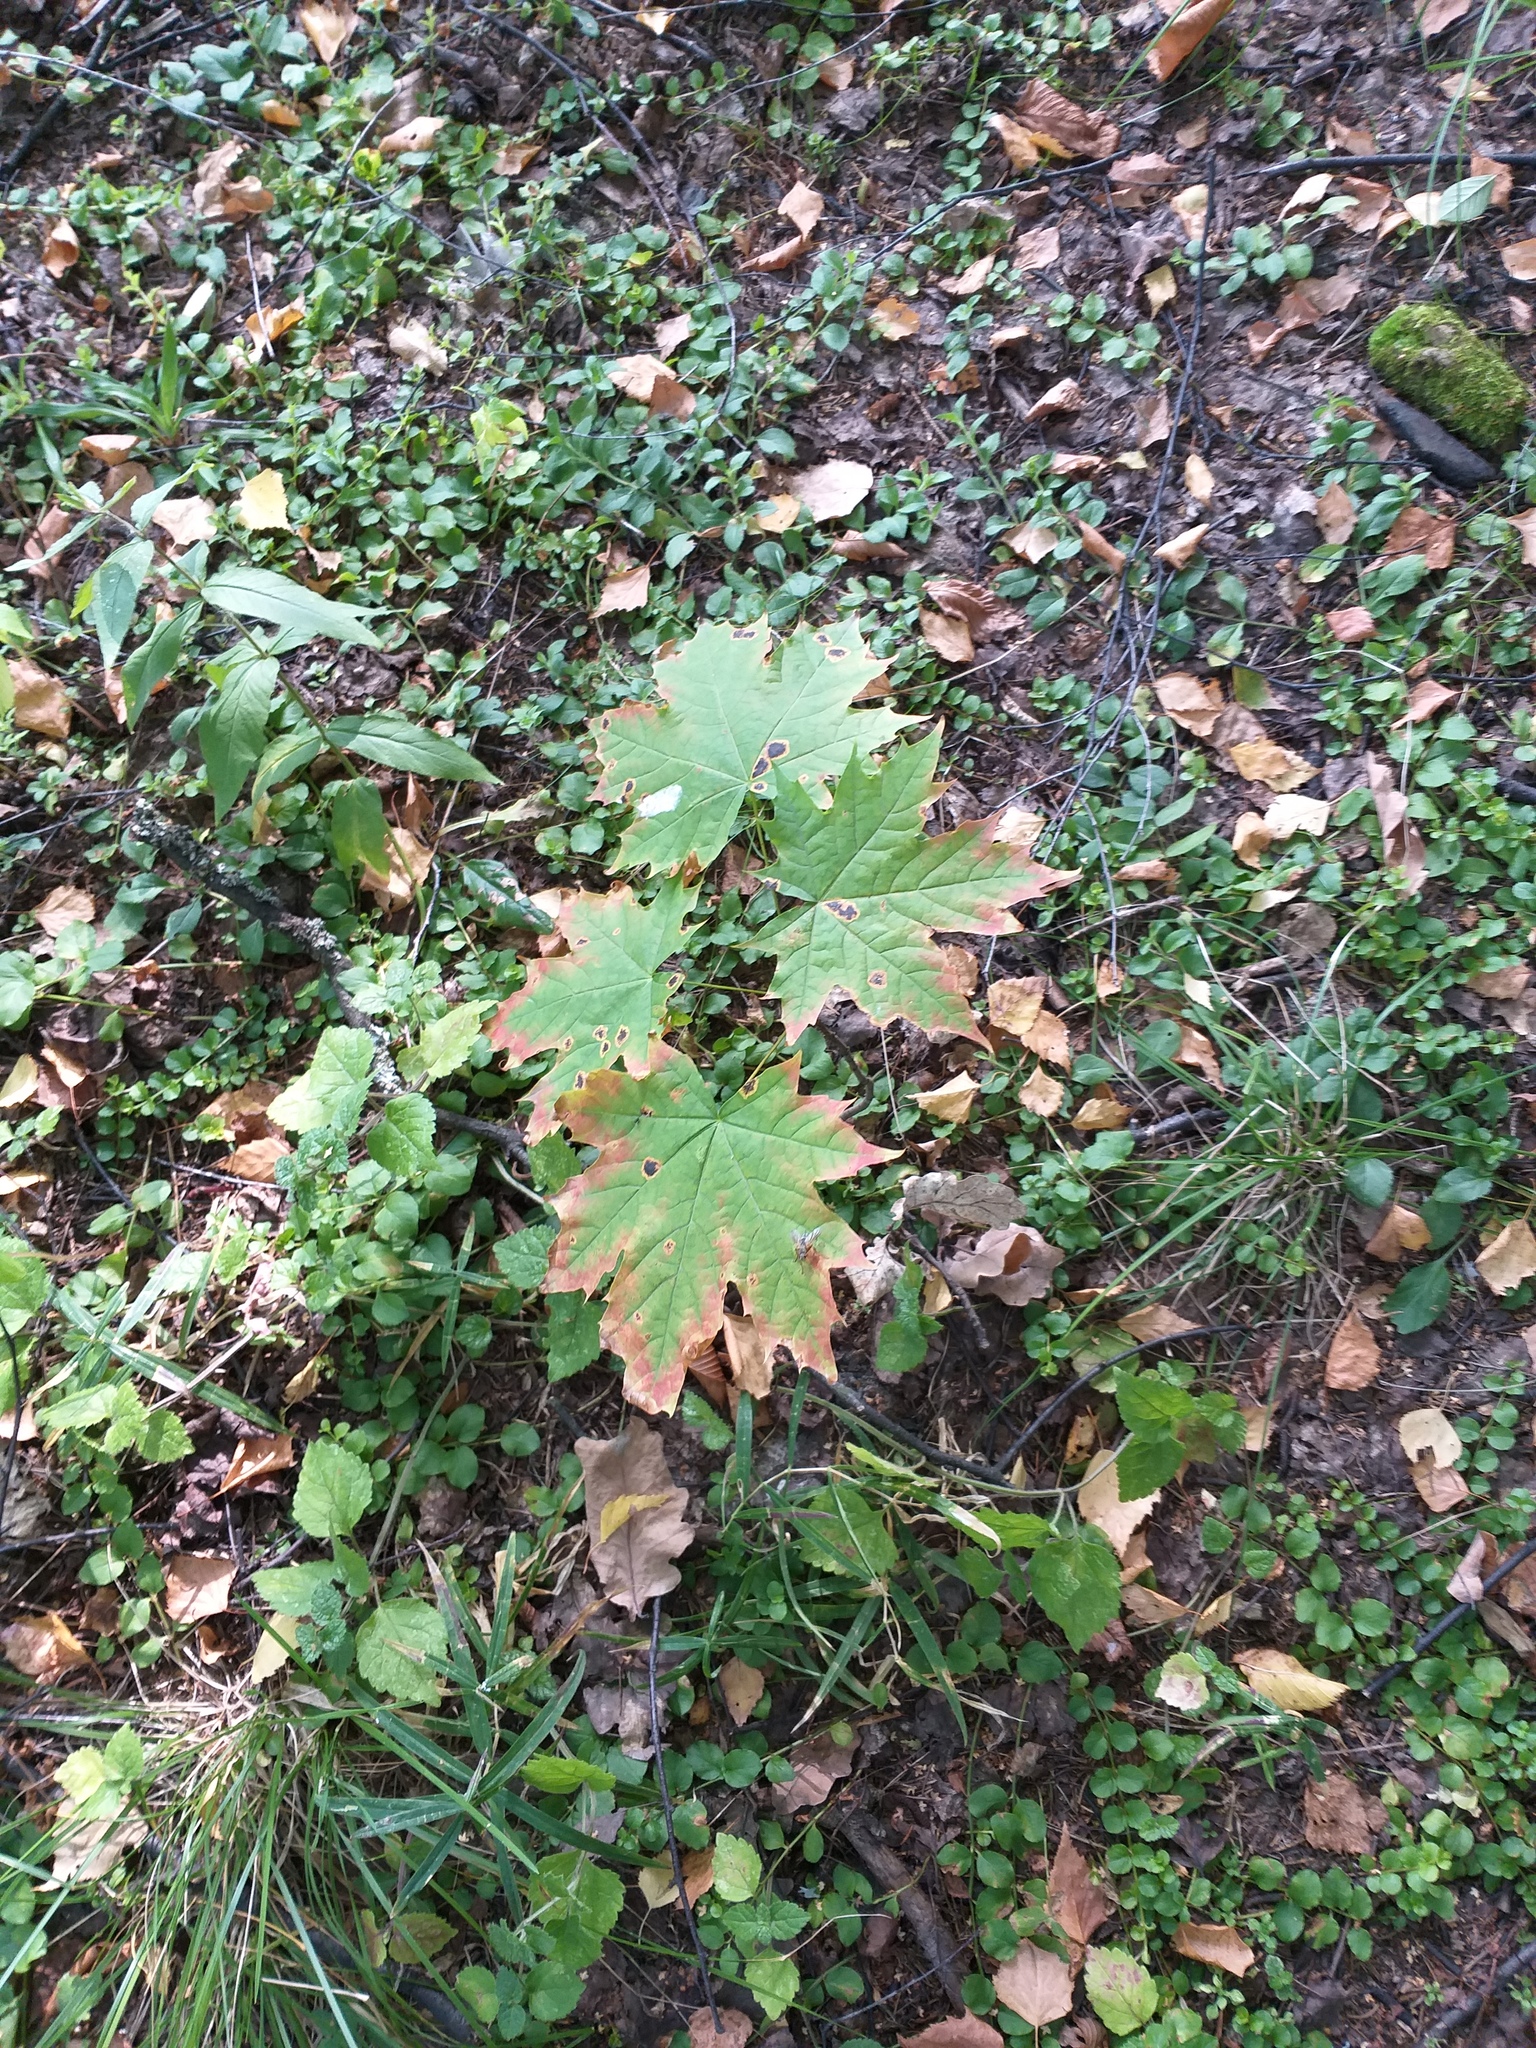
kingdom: Plantae
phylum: Tracheophyta
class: Magnoliopsida
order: Sapindales
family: Sapindaceae
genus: Acer
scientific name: Acer platanoides
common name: Norway maple
